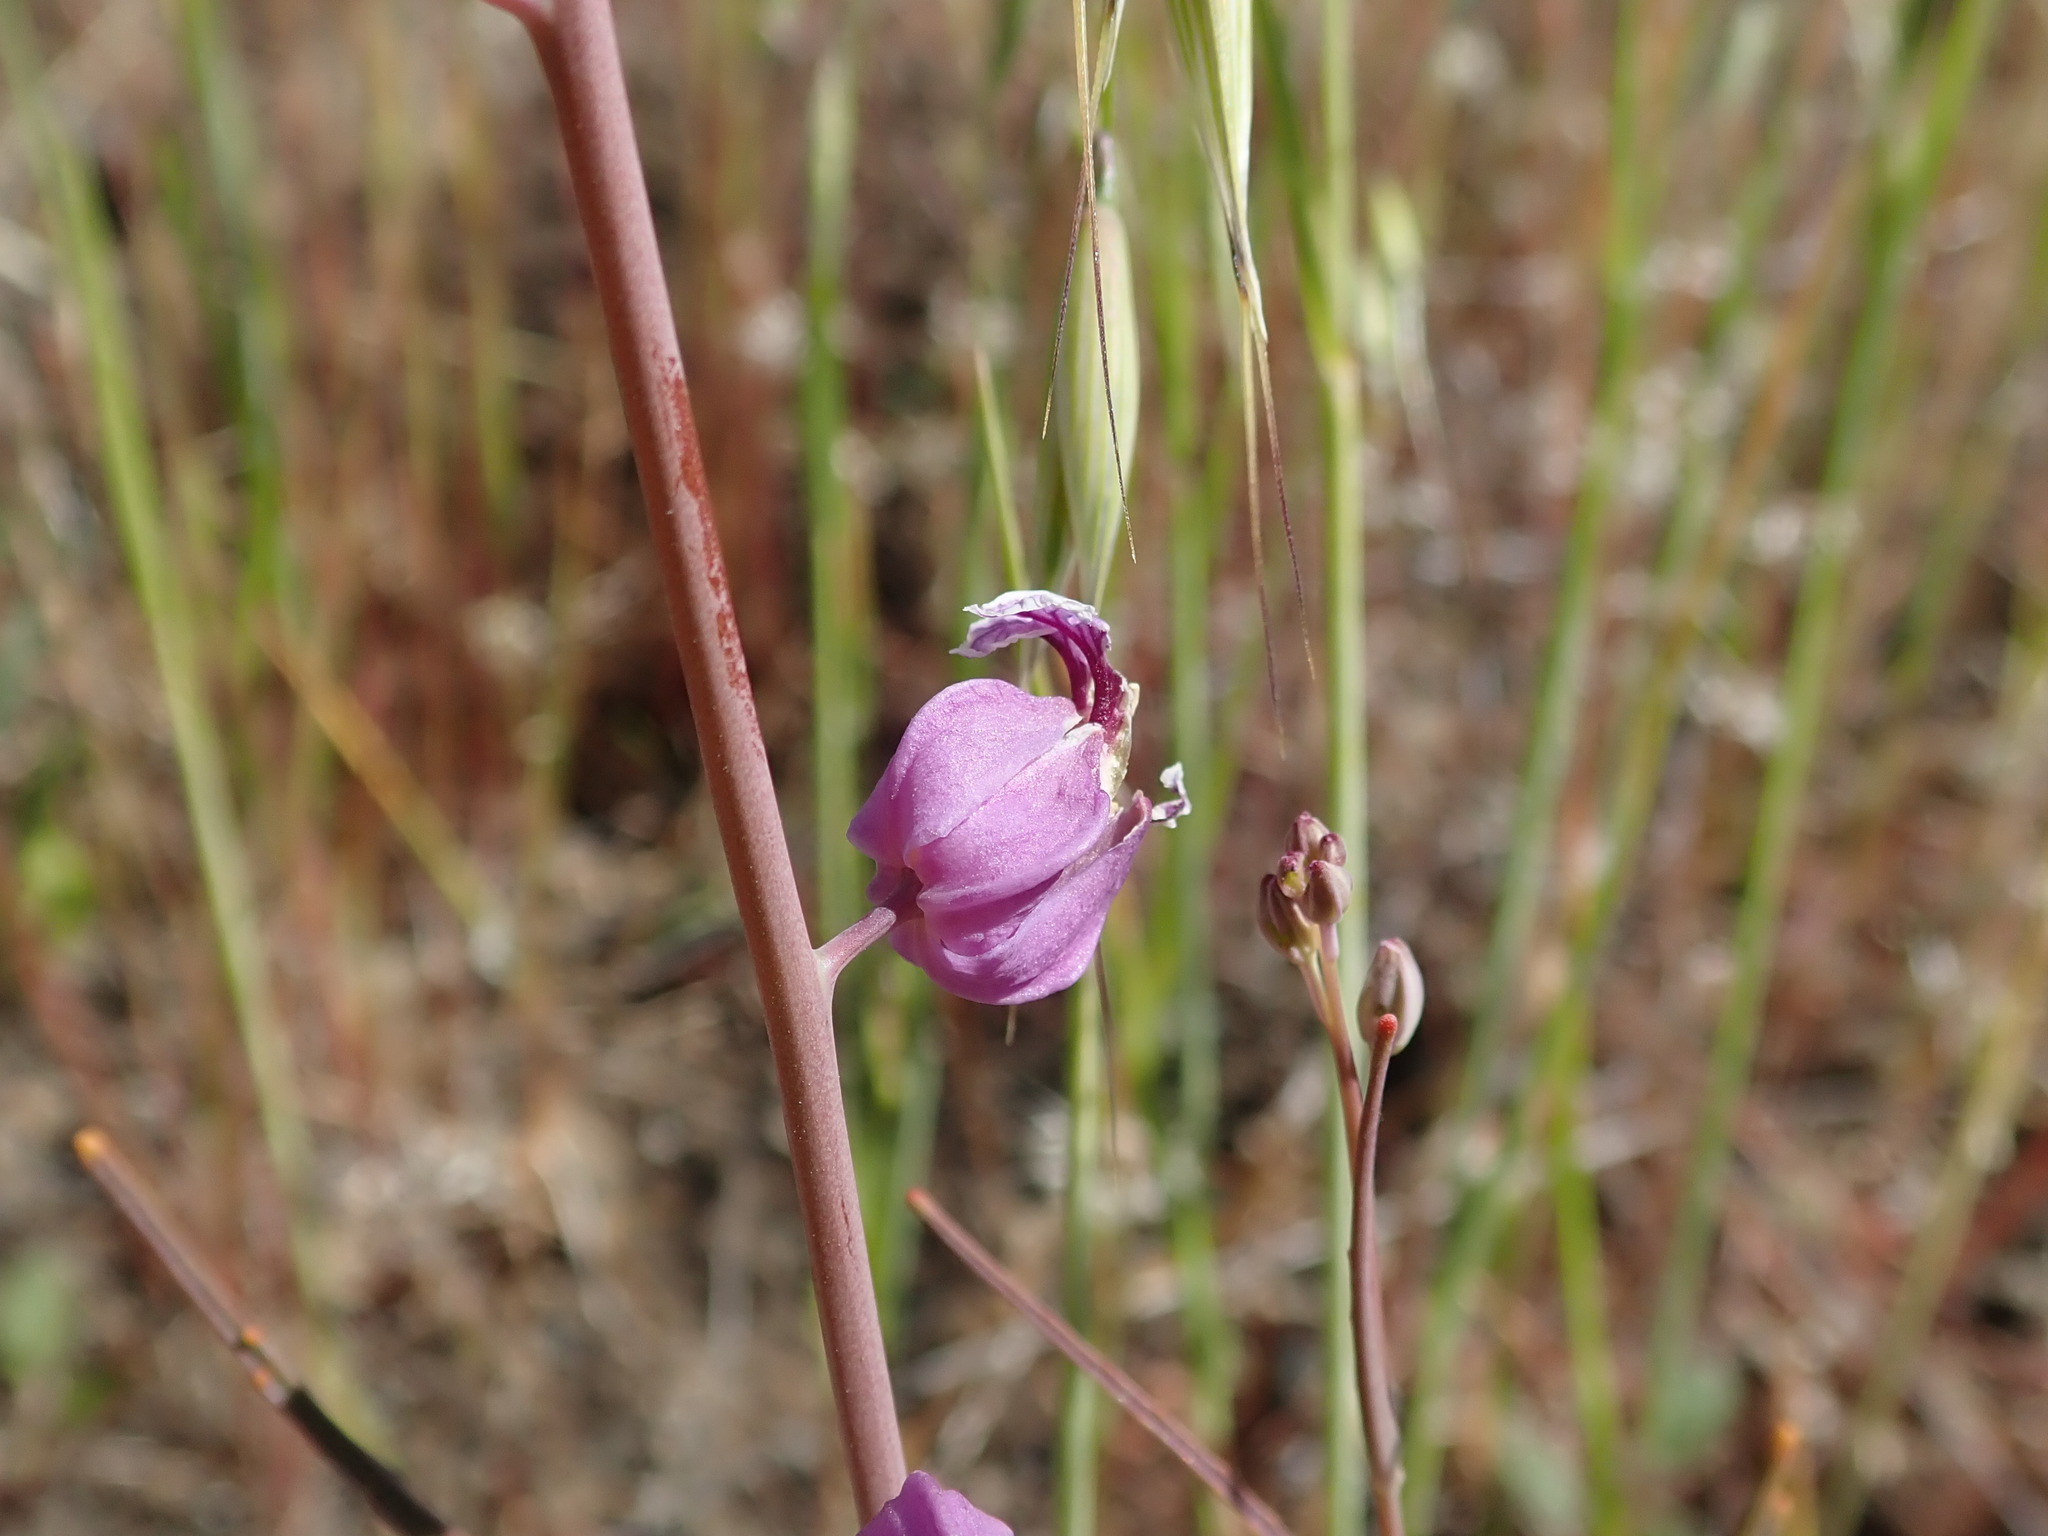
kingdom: Plantae
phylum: Tracheophyta
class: Magnoliopsida
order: Brassicales
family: Brassicaceae
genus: Streptanthus
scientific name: Streptanthus glandulosus
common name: Jewel-flower
